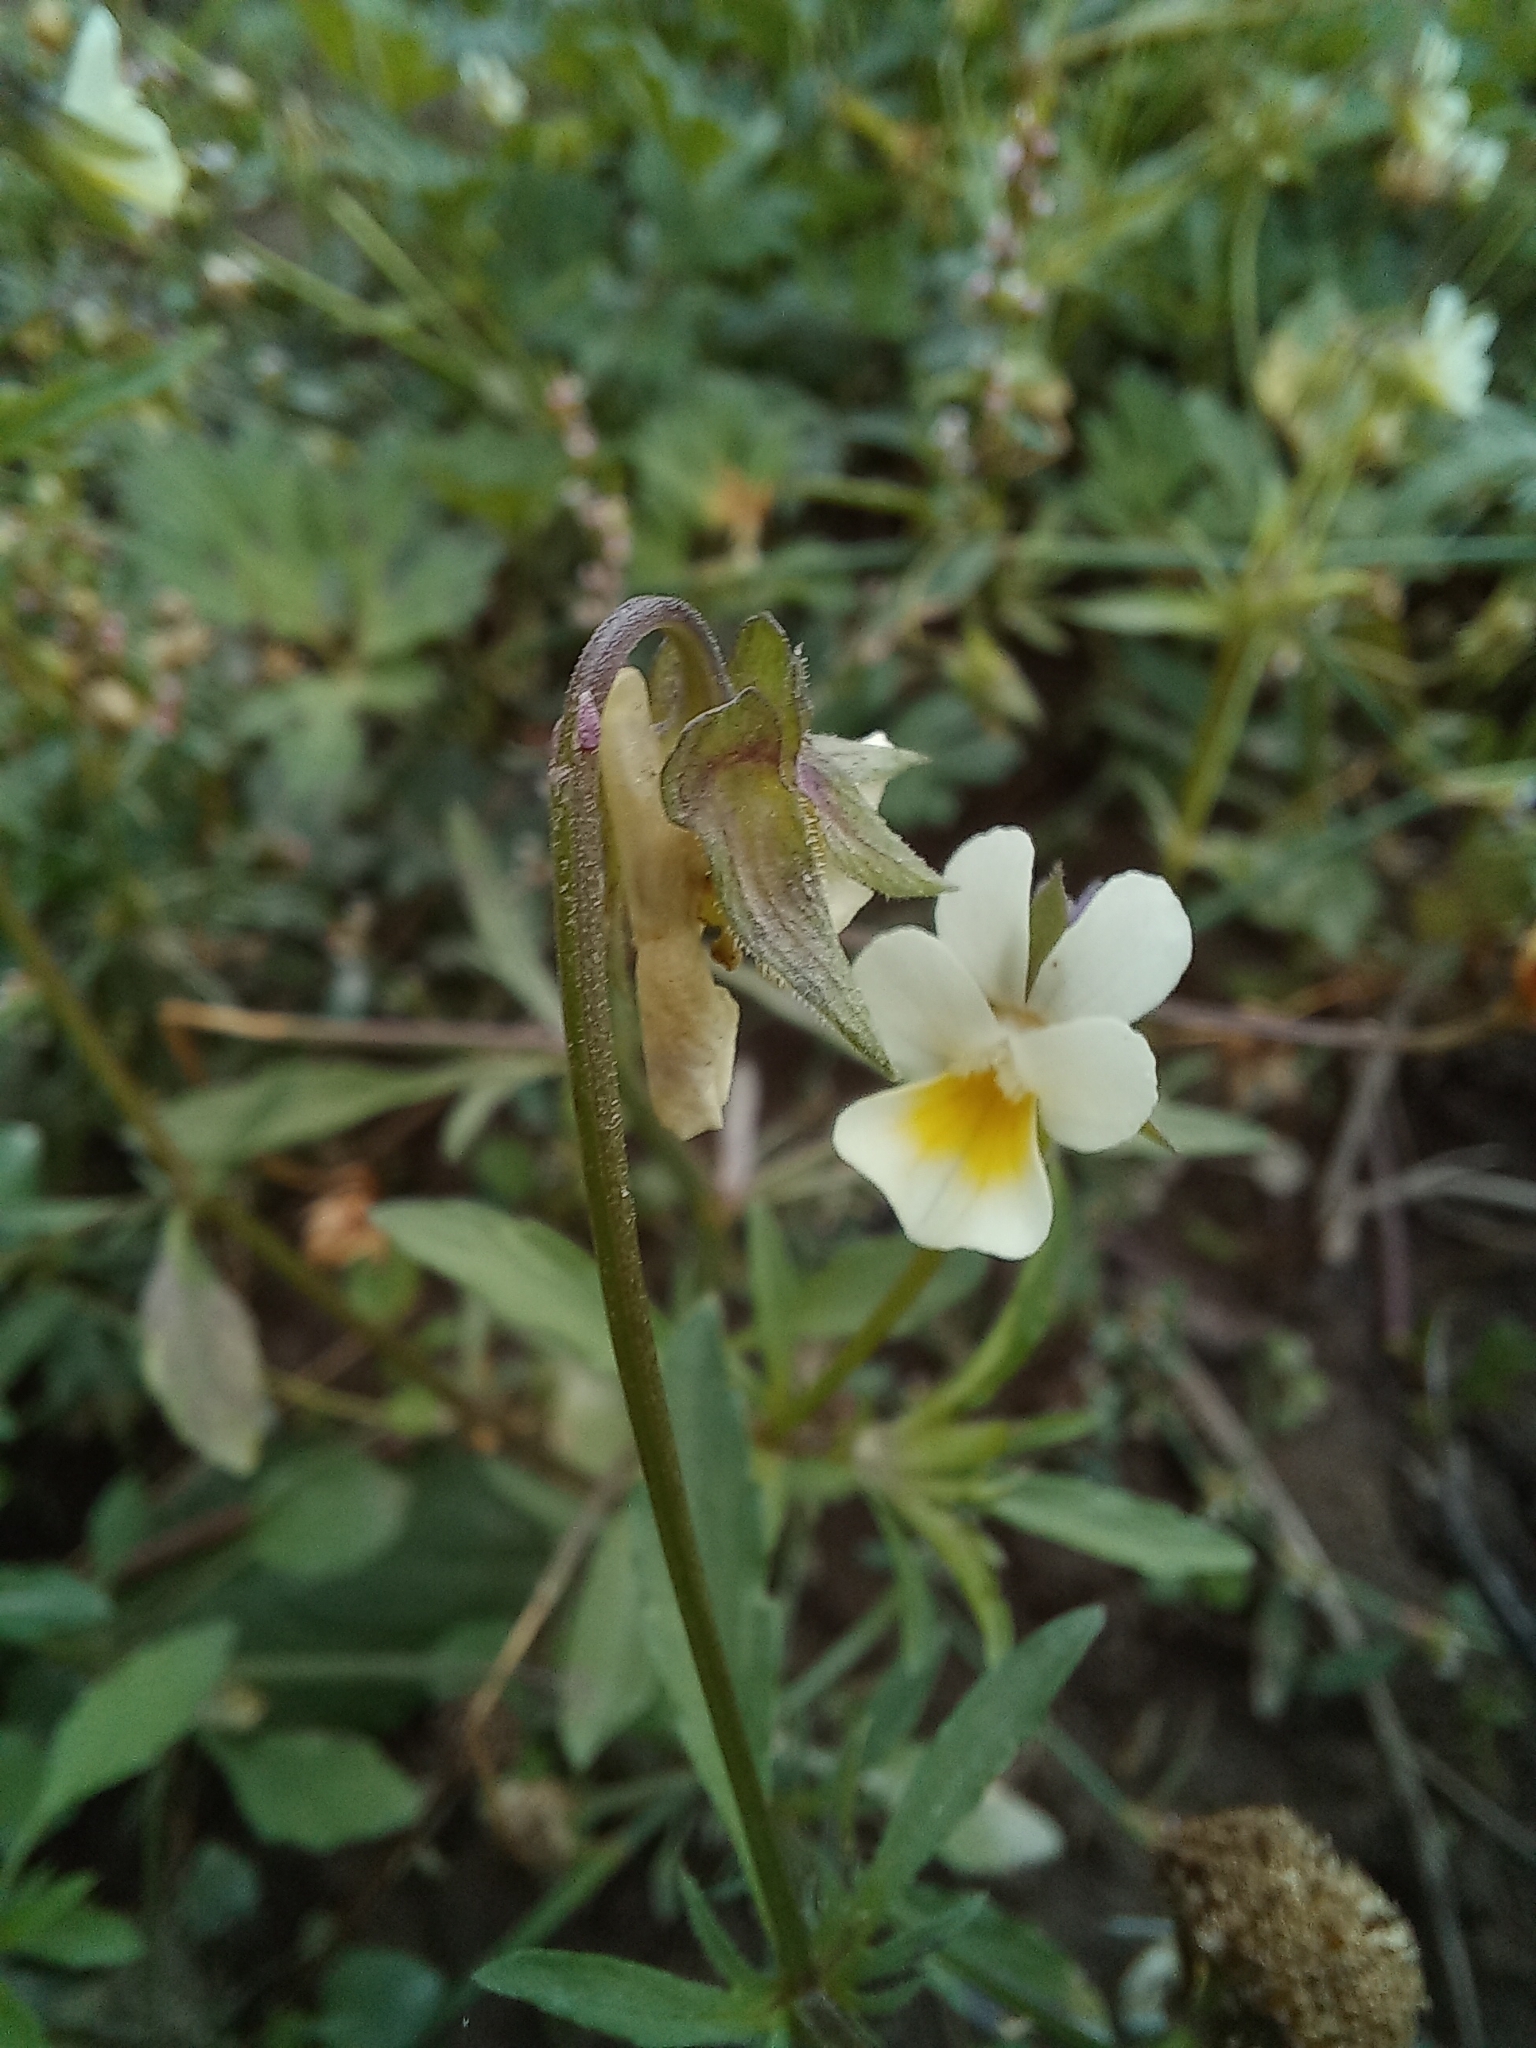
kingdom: Plantae
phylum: Tracheophyta
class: Magnoliopsida
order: Malpighiales
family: Violaceae
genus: Viola
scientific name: Viola arvensis
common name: Field pansy
